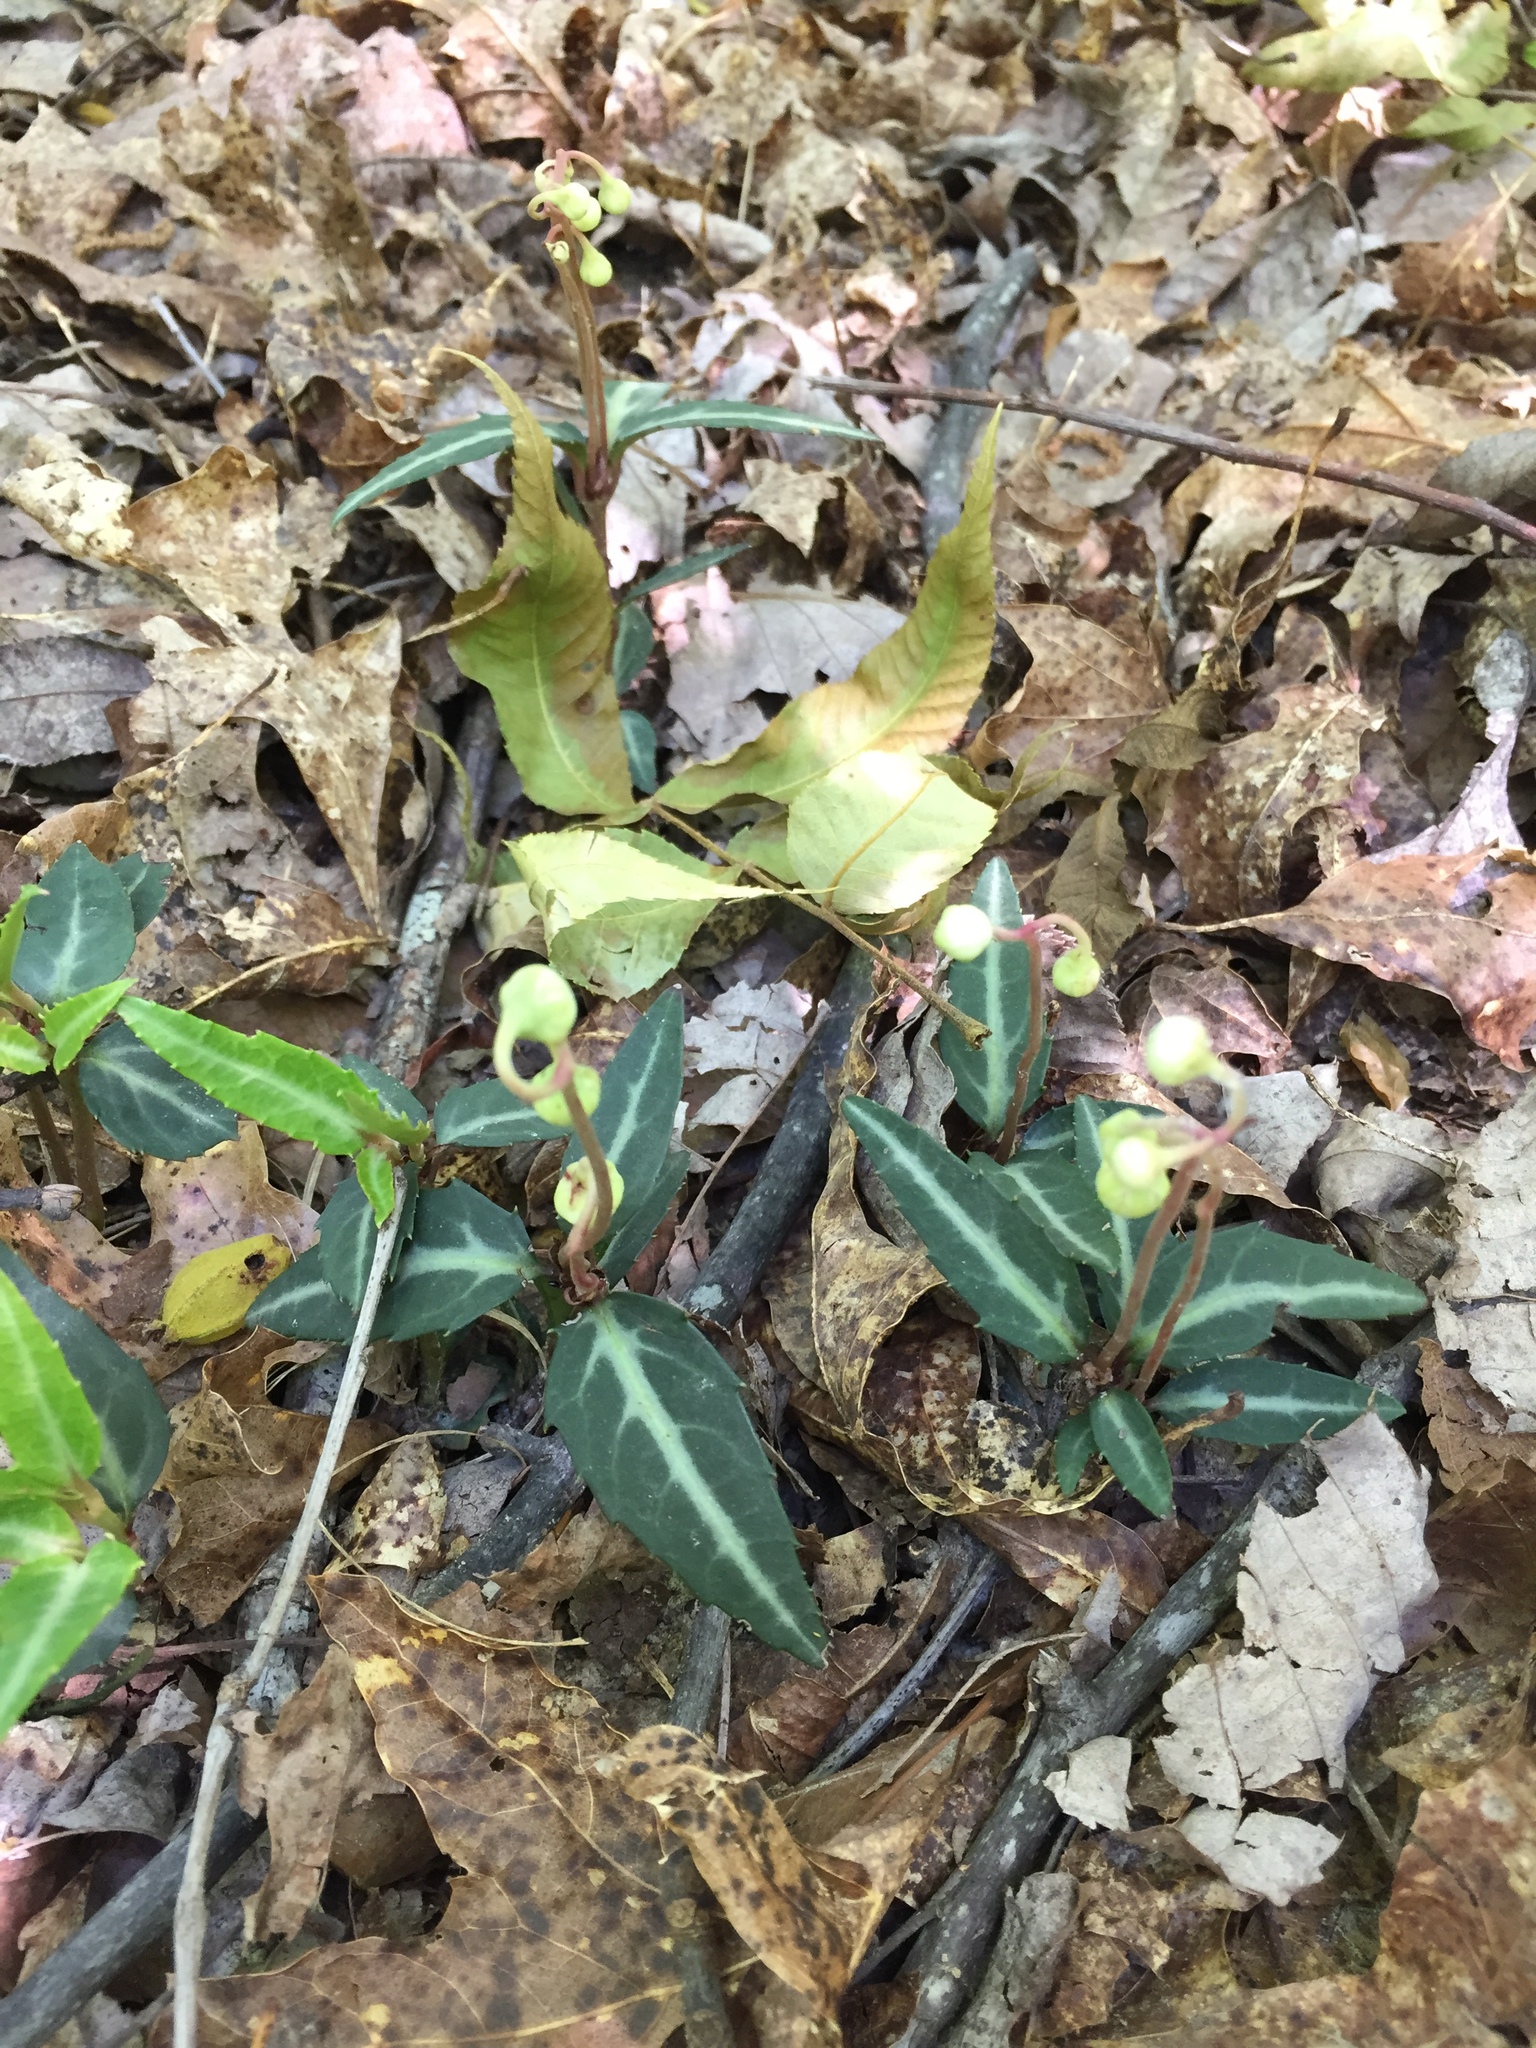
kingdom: Plantae
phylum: Tracheophyta
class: Magnoliopsida
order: Ericales
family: Ericaceae
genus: Chimaphila
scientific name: Chimaphila maculata
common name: Spotted pipsissewa
